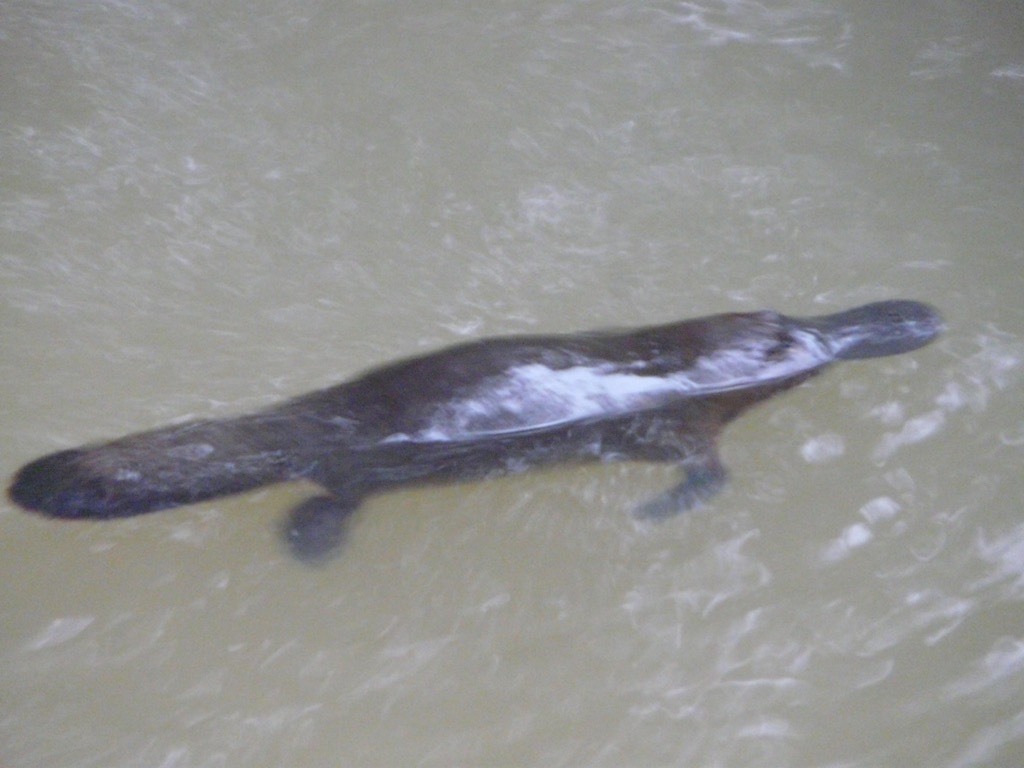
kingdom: Animalia
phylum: Chordata
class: Mammalia
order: Monotremata
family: Ornithorhynchidae
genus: Ornithorhynchus
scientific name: Ornithorhynchus anatinus
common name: Platypus
